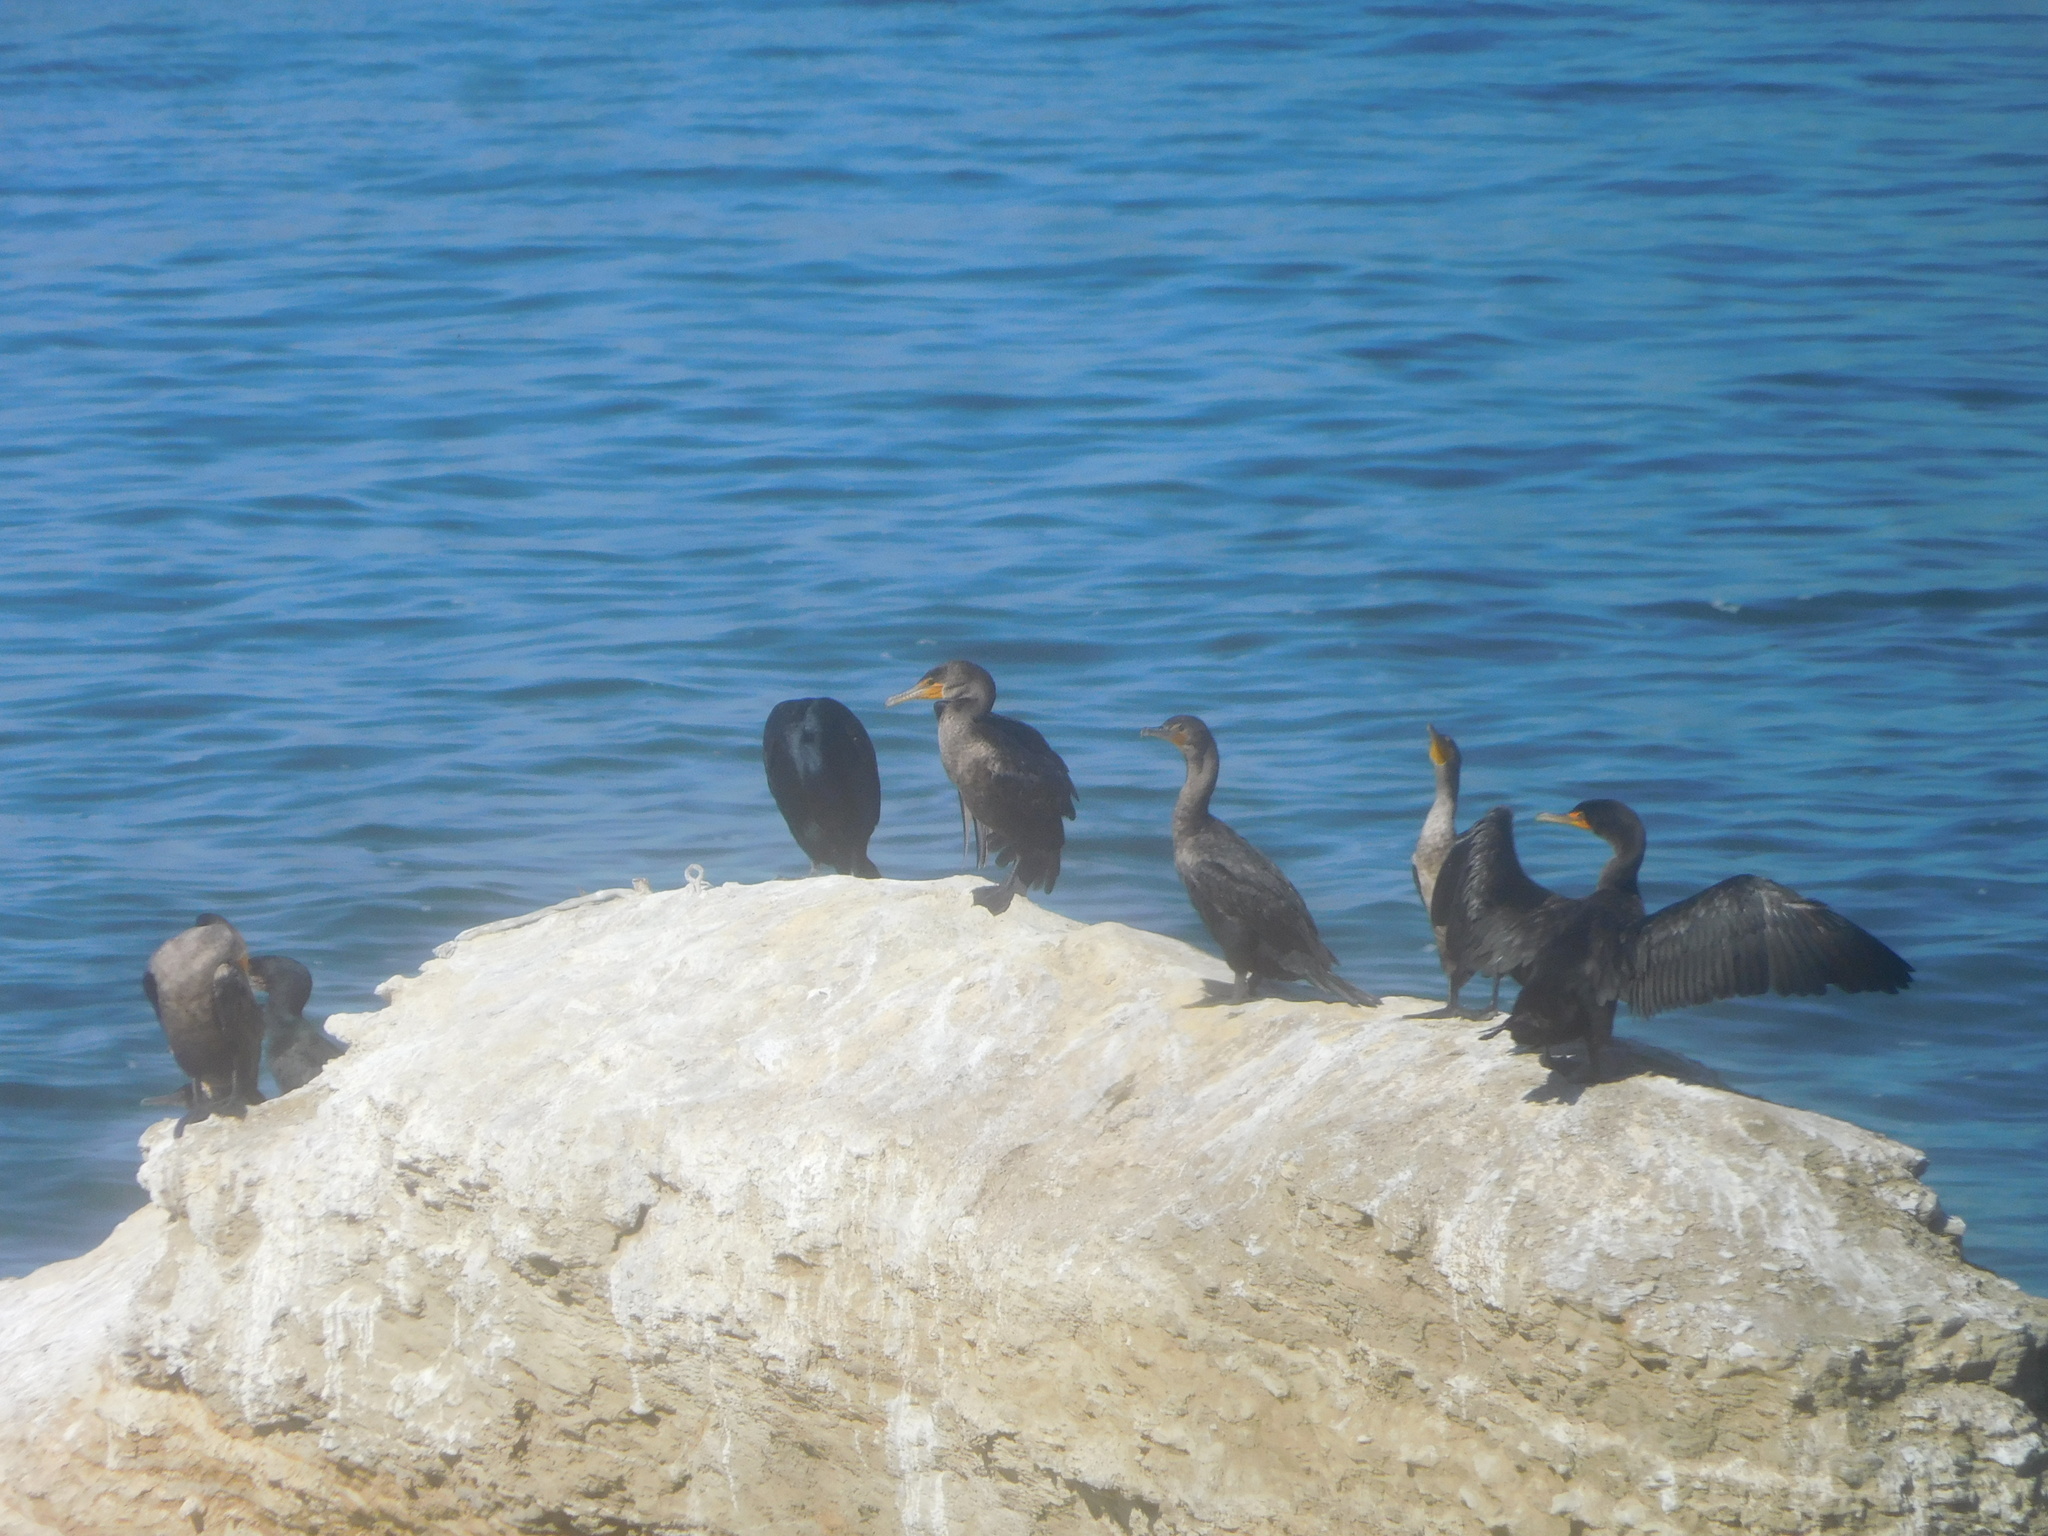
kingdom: Animalia
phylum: Chordata
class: Aves
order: Suliformes
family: Phalacrocoracidae
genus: Phalacrocorax
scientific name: Phalacrocorax auritus
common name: Double-crested cormorant
